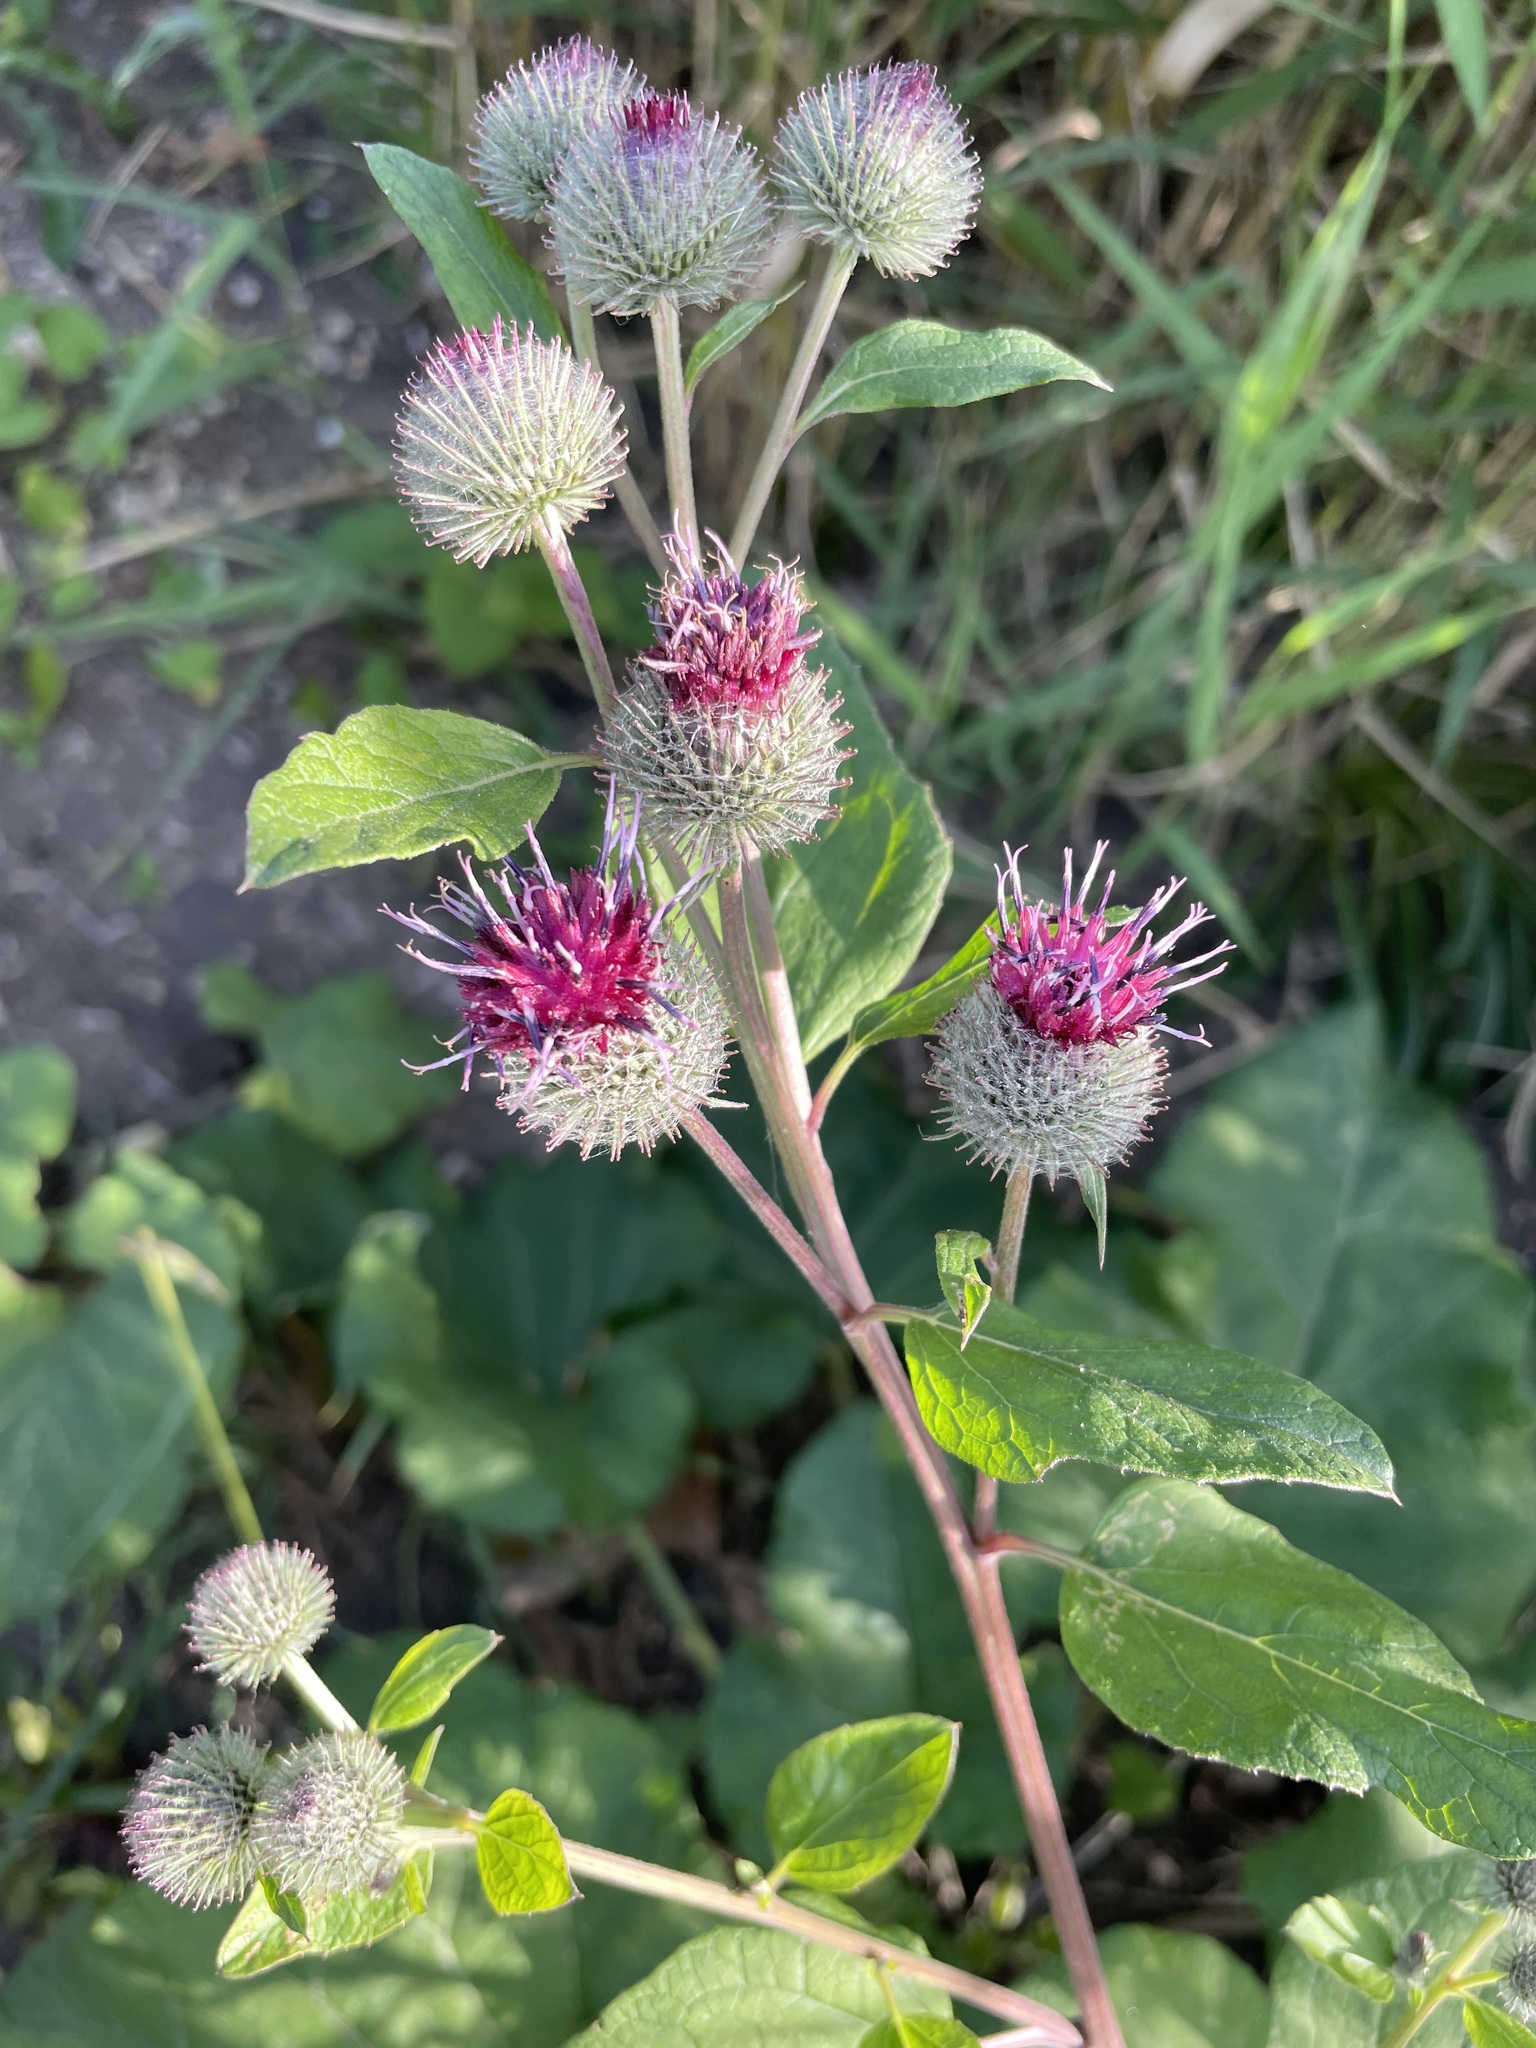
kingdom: Plantae
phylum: Tracheophyta
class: Magnoliopsida
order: Asterales
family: Asteraceae
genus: Arctium
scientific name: Arctium tomentosum
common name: Woolly burdock
